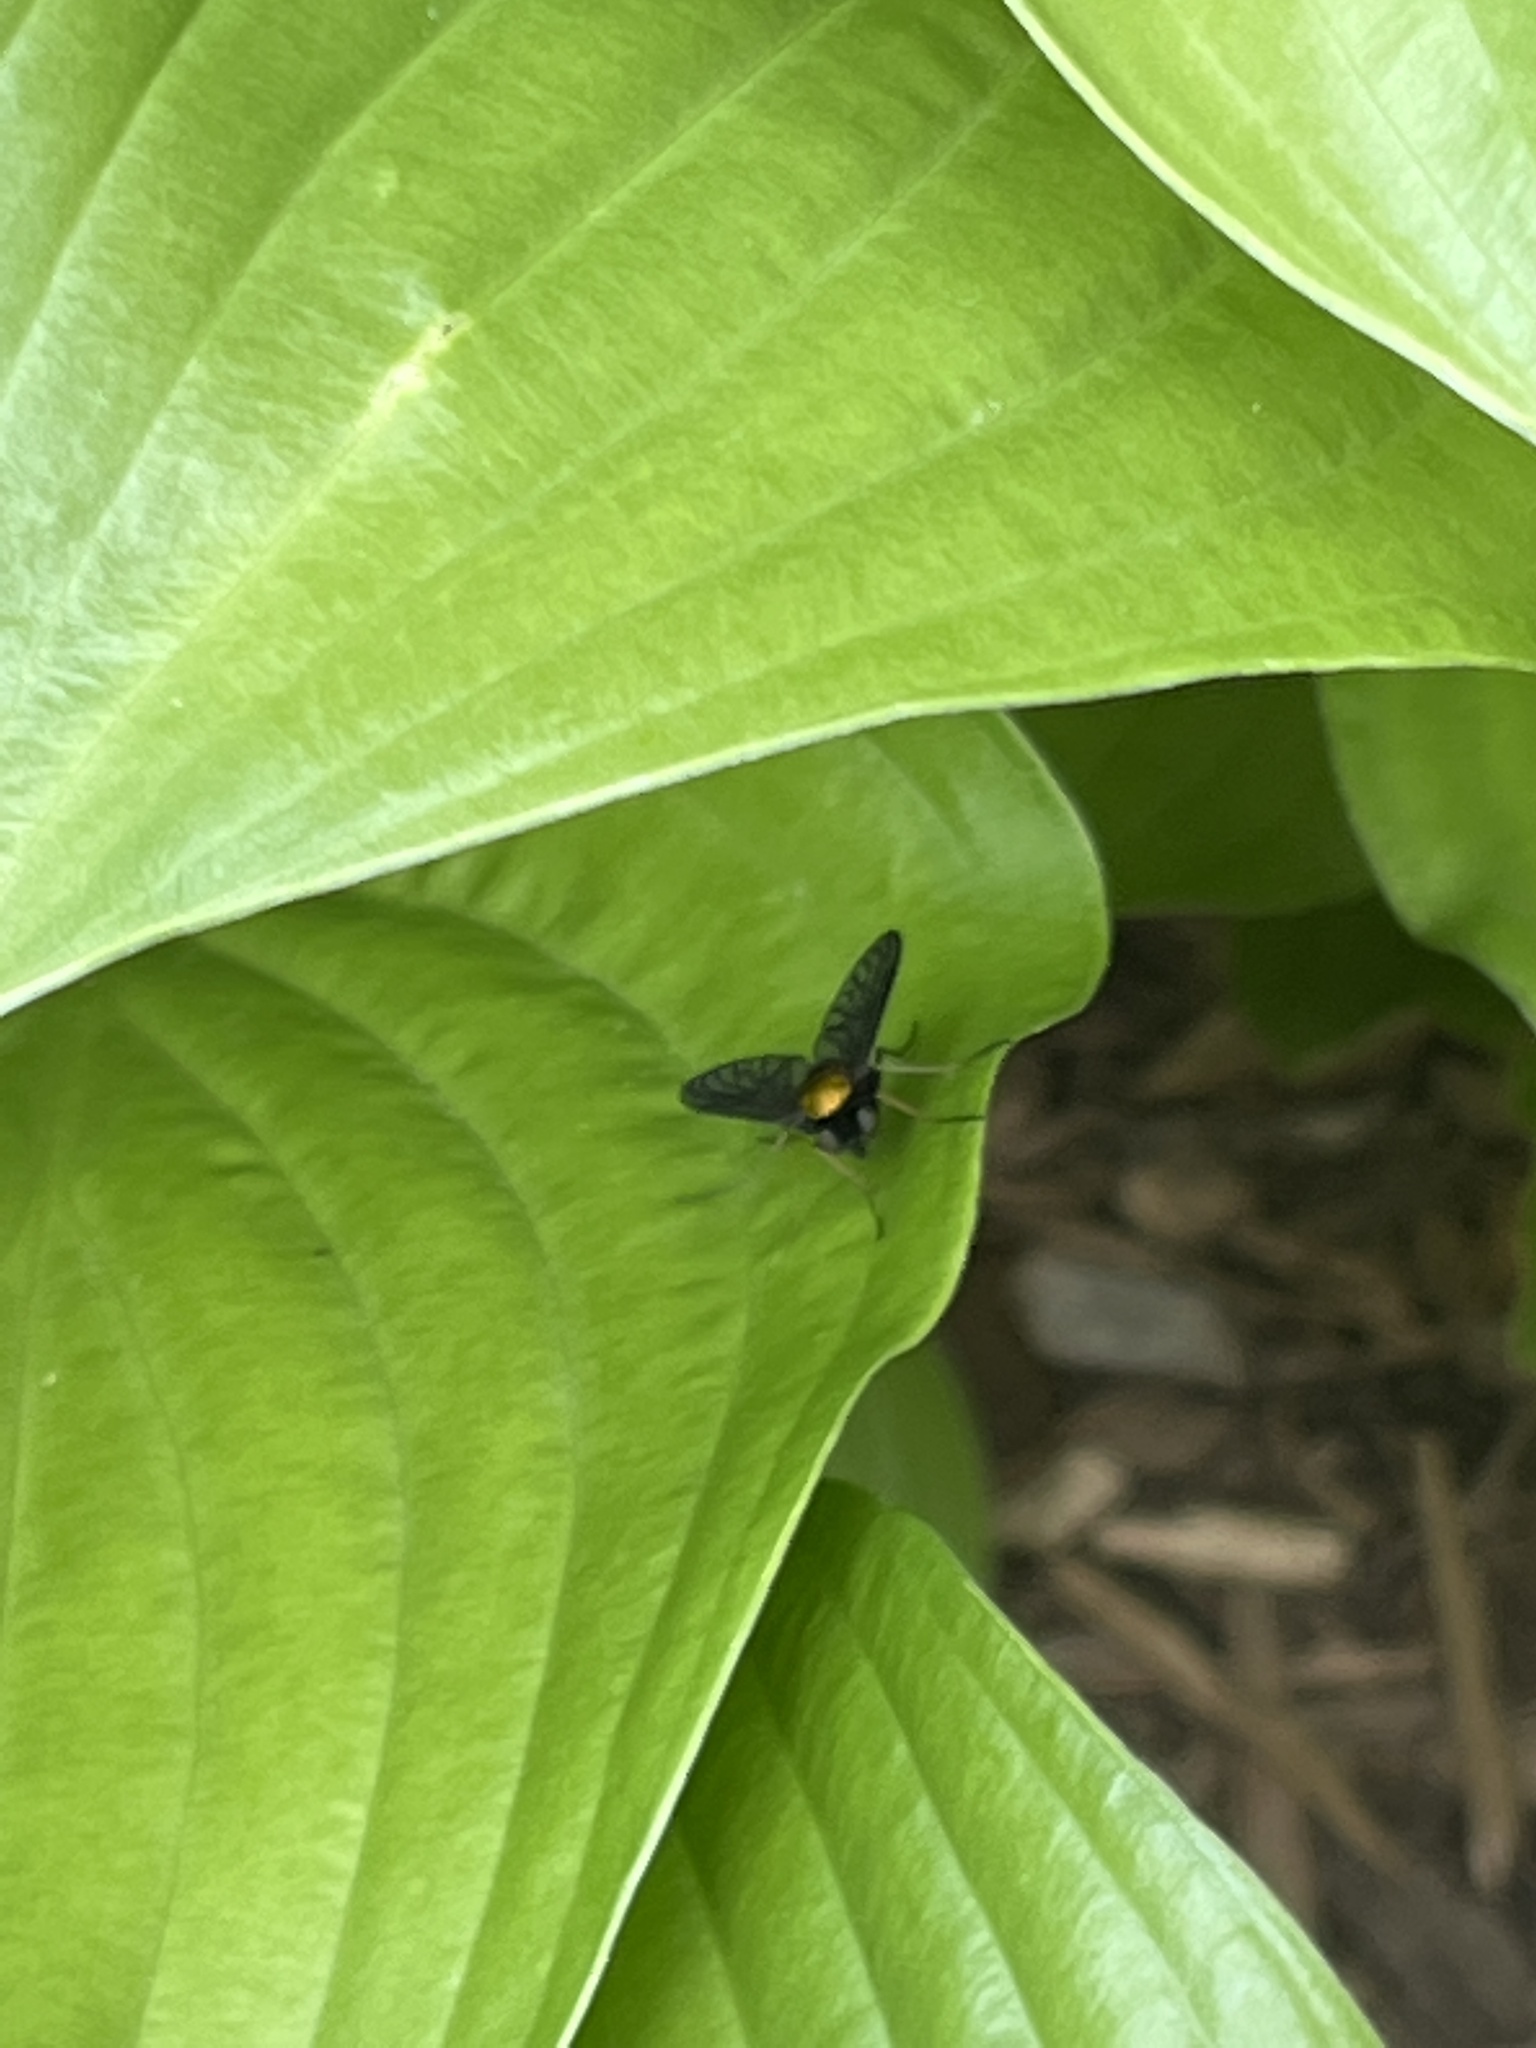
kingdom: Animalia
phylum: Arthropoda
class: Insecta
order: Diptera
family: Rhagionidae
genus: Chrysopilus
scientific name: Chrysopilus thoracicus
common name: Golden-backed snipe fly
